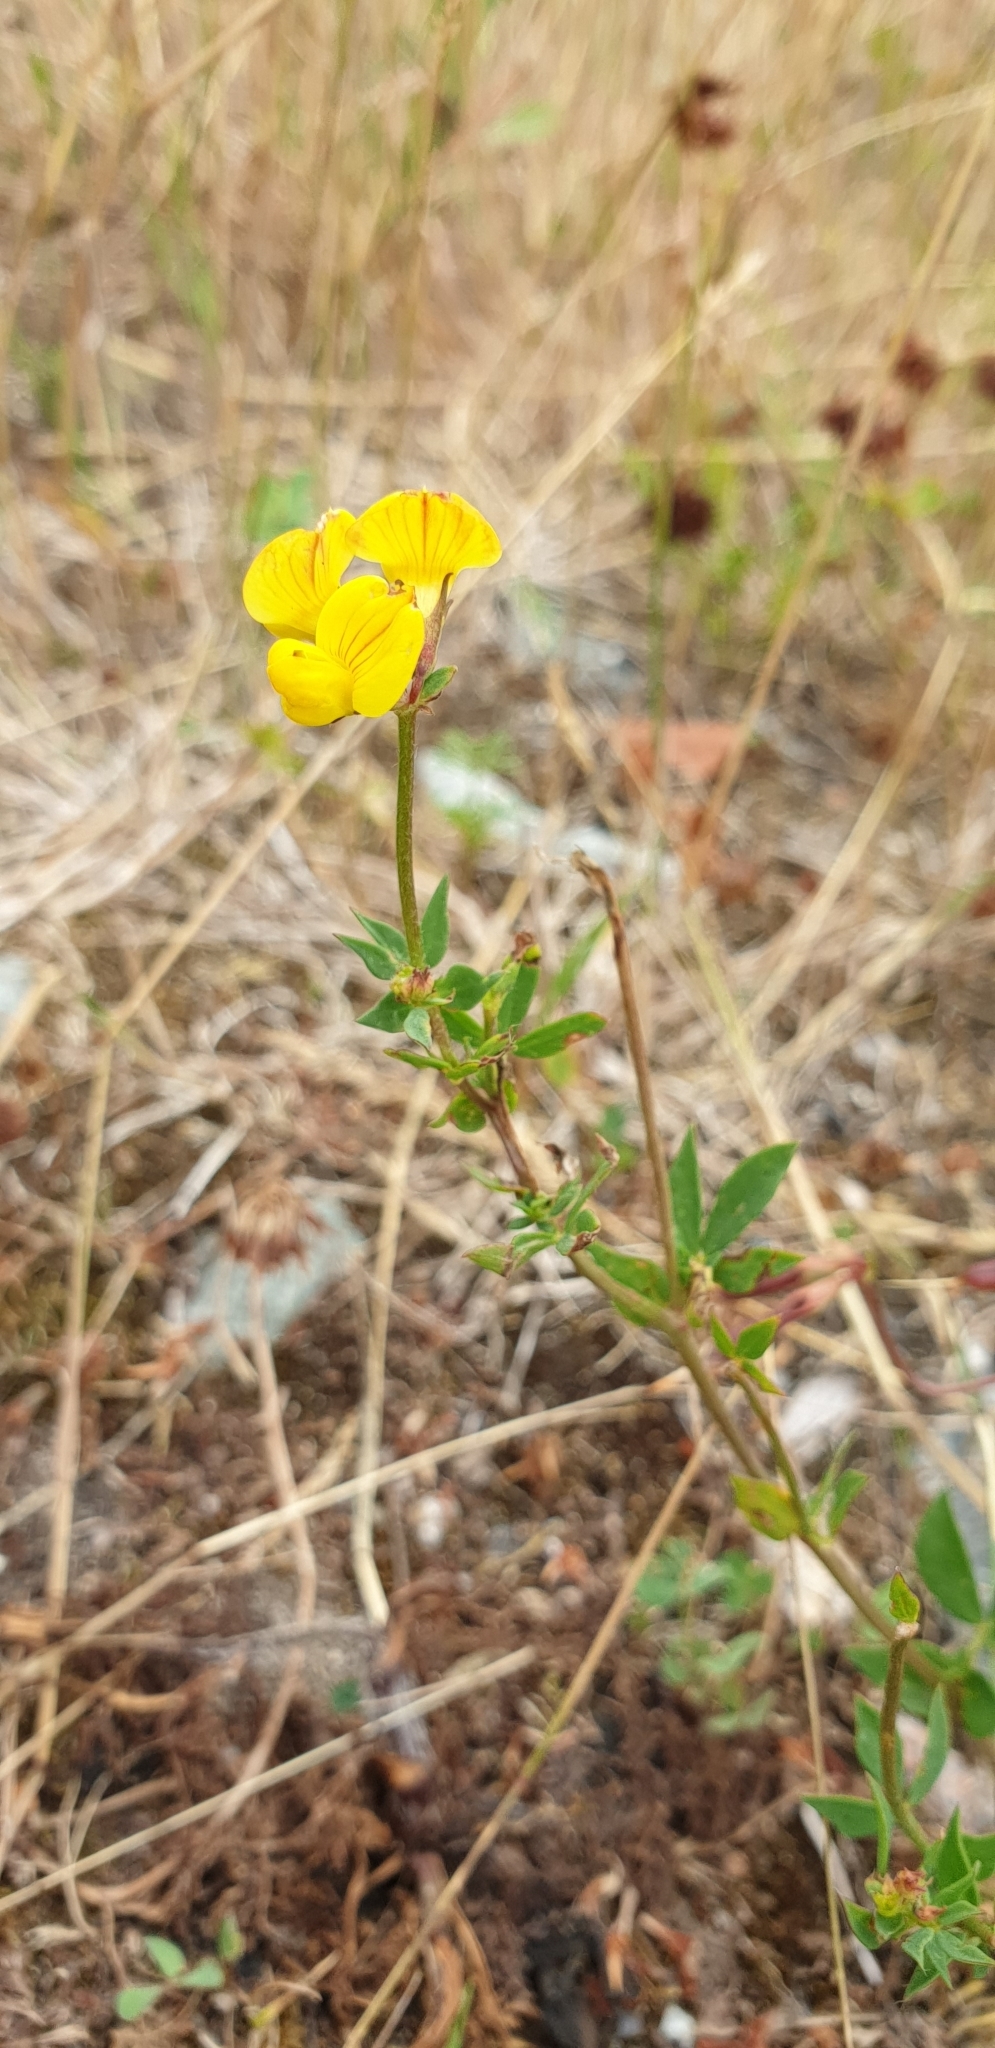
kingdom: Plantae
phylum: Tracheophyta
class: Magnoliopsida
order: Fabales
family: Fabaceae
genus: Lotus
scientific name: Lotus corniculatus
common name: Common bird's-foot-trefoil
